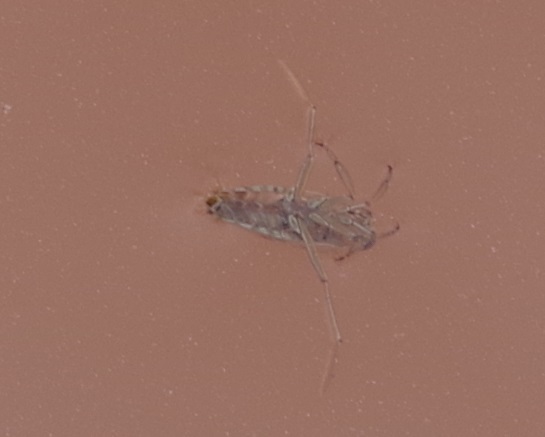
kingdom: Animalia
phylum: Arthropoda
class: Insecta
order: Hemiptera
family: Notonectidae
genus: Notonecta
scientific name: Notonecta
